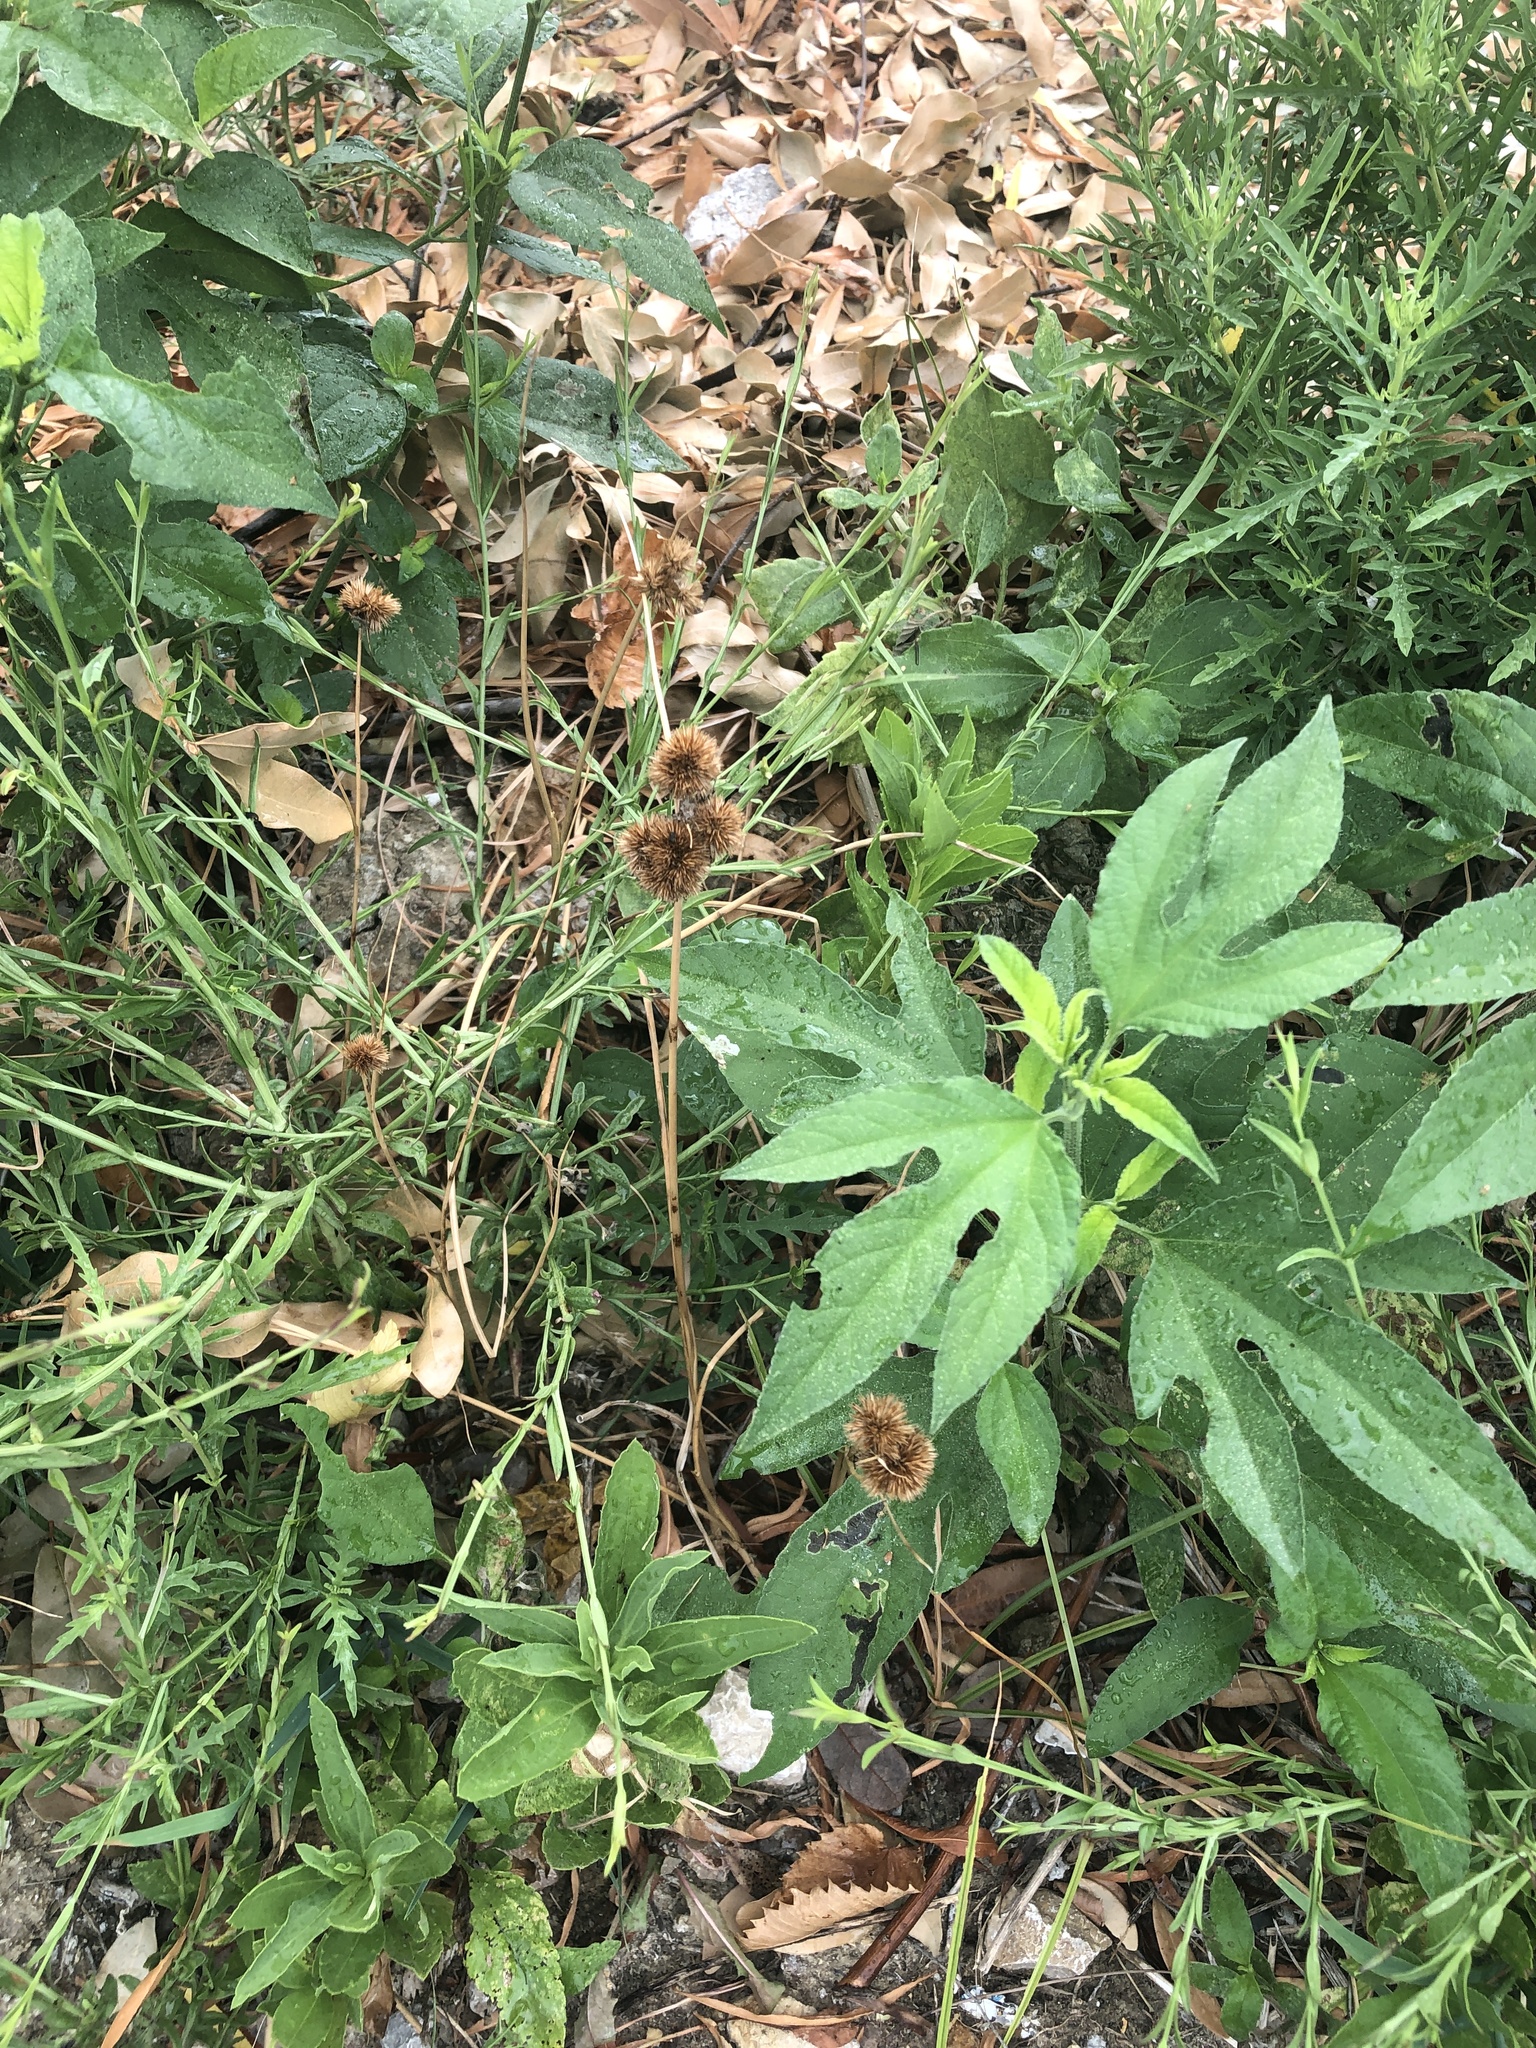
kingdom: Plantae
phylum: Tracheophyta
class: Liliopsida
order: Poales
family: Juncaceae
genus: Juncus
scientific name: Juncus torreyi
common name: Torrey's rush
